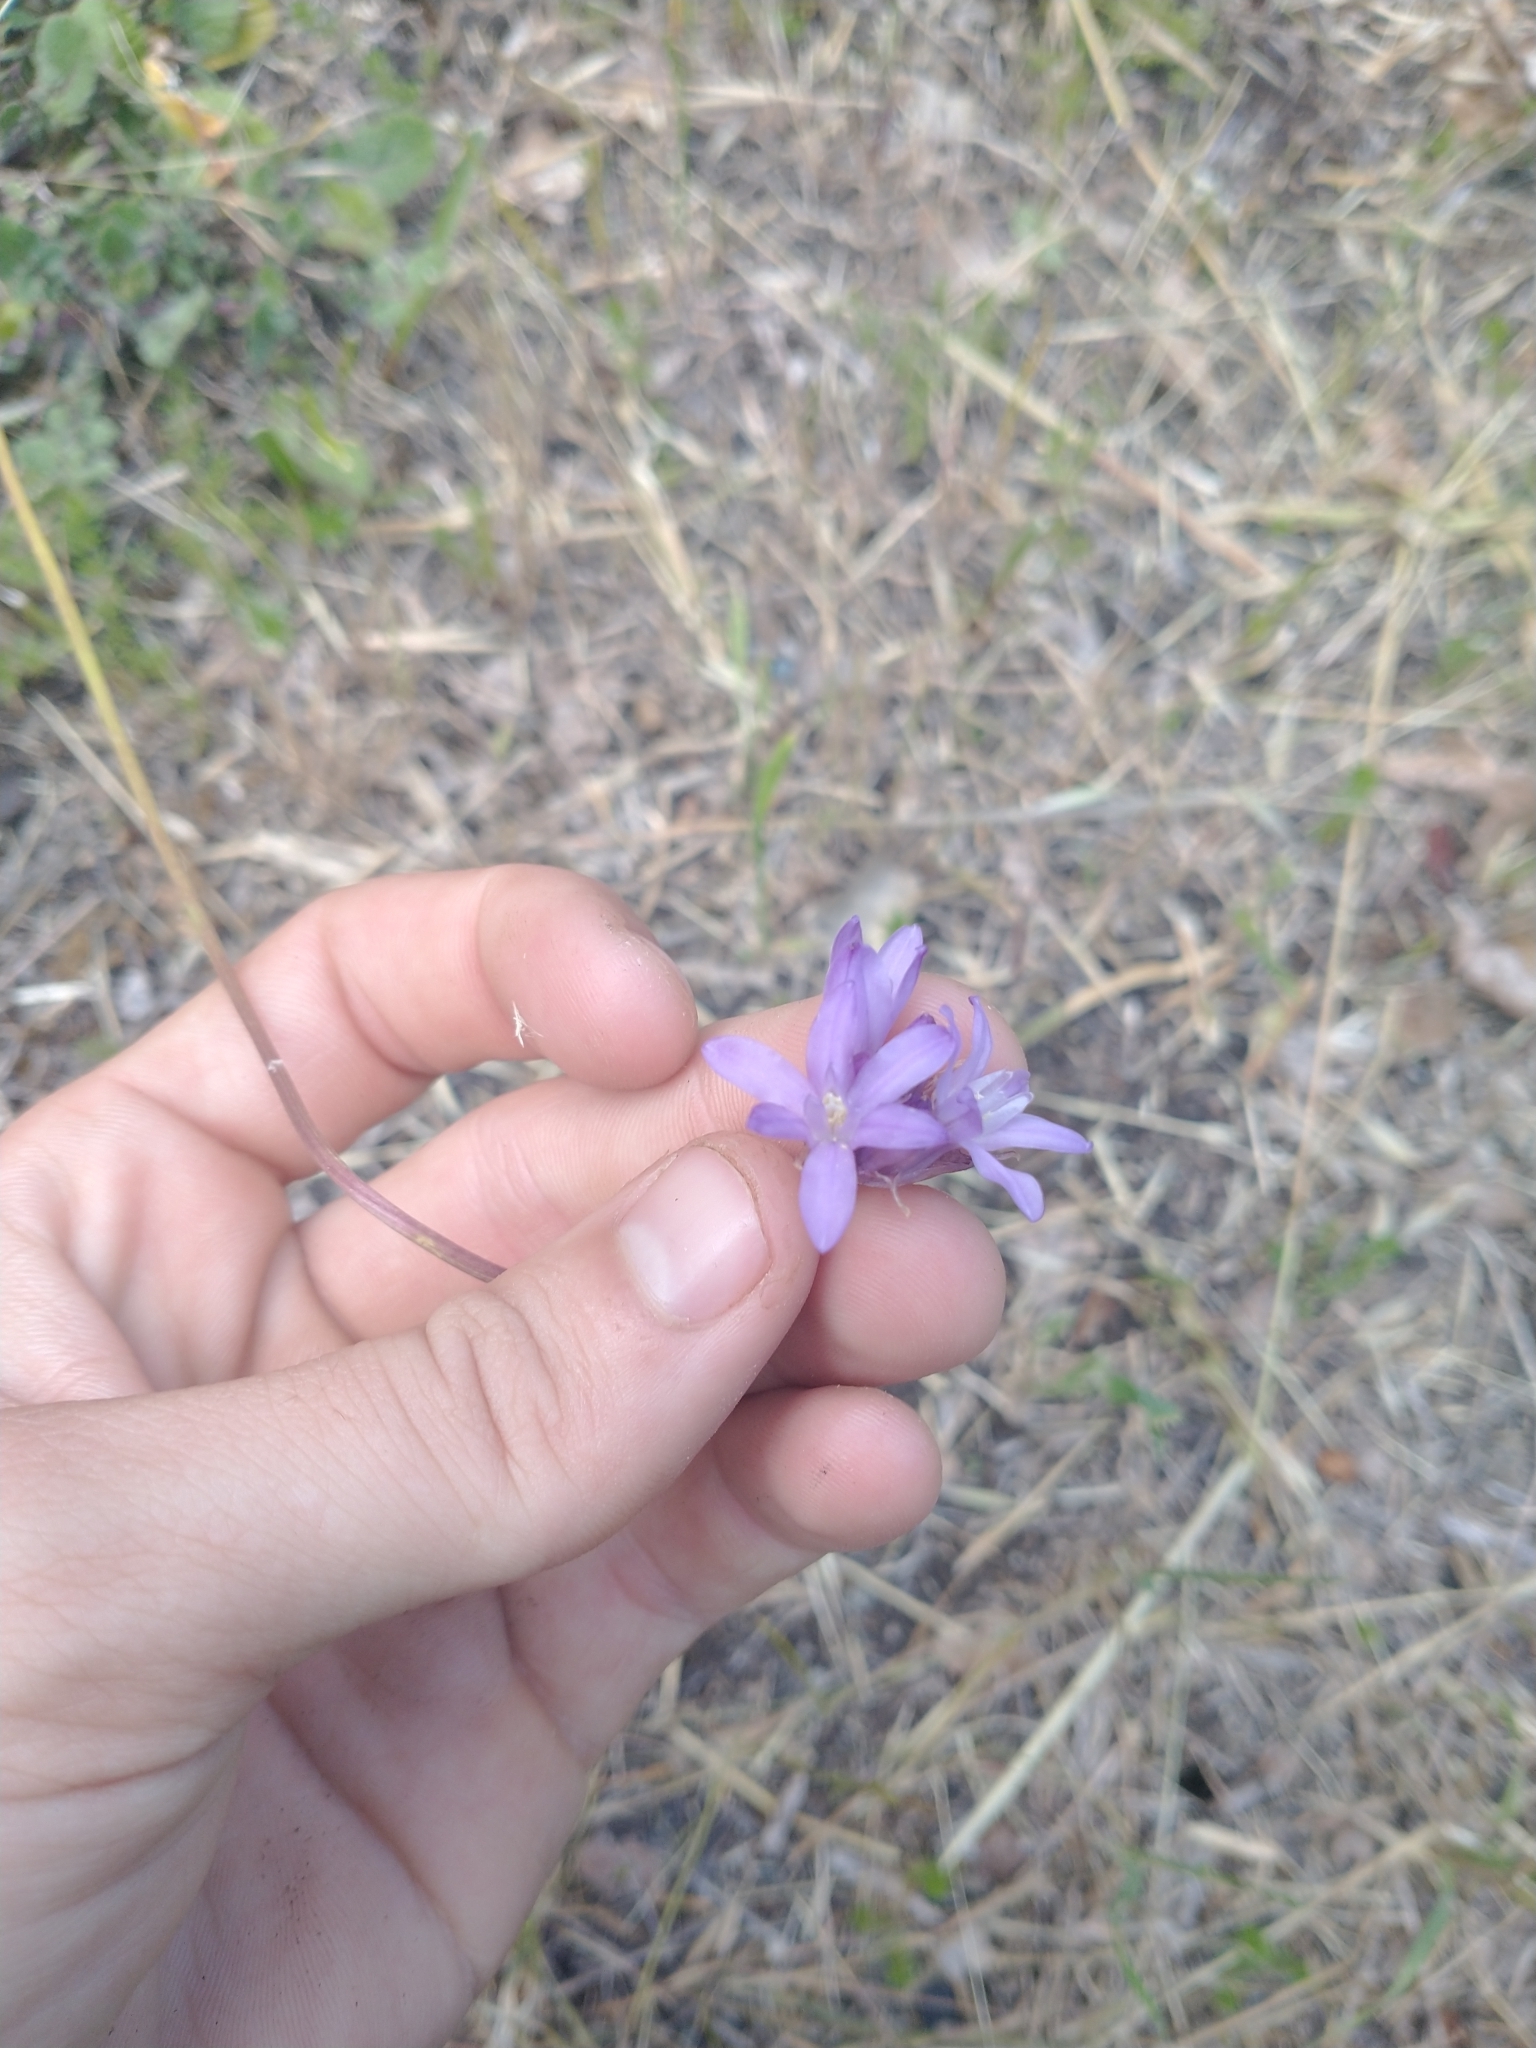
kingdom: Plantae
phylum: Tracheophyta
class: Liliopsida
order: Asparagales
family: Asparagaceae
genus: Dichelostemma
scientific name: Dichelostemma congestum
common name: Fork-tooth ookow
